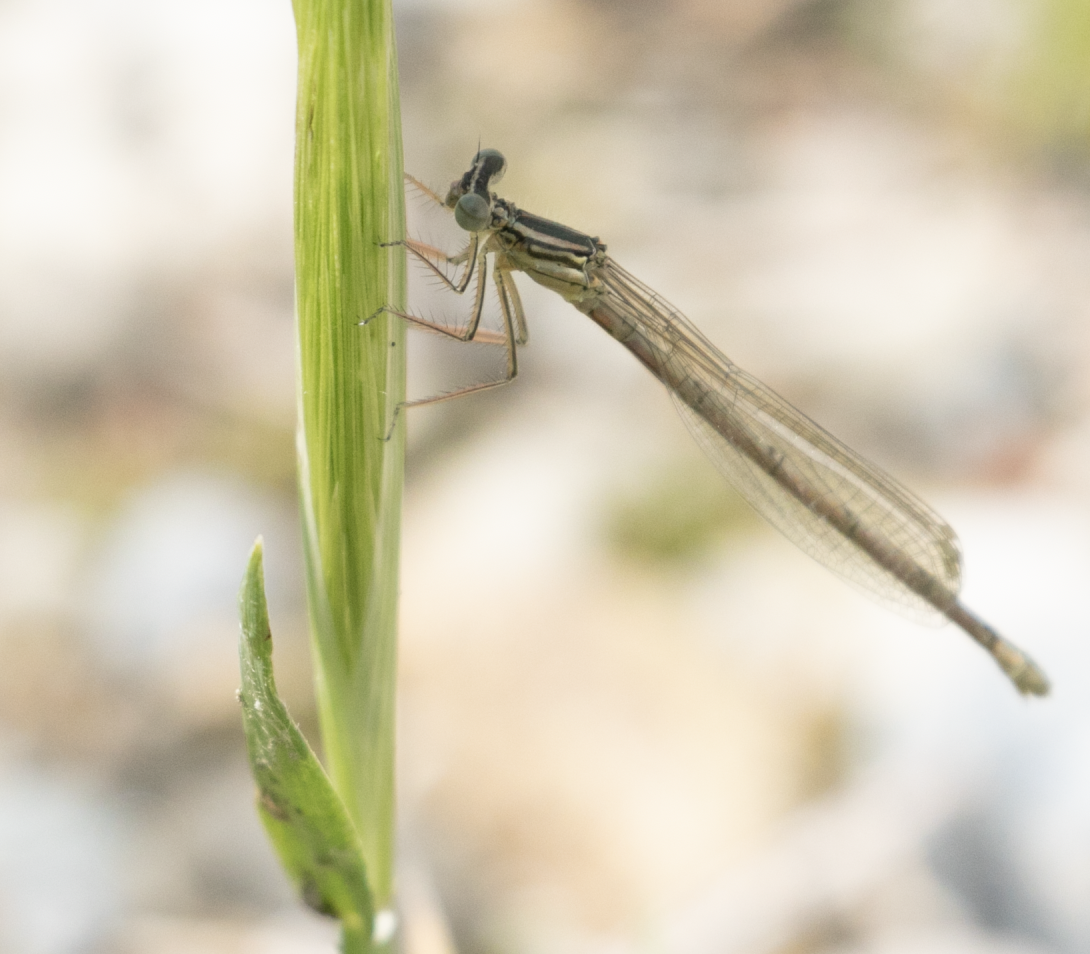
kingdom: Animalia
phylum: Arthropoda
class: Insecta
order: Odonata
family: Platycnemididae
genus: Platycnemis
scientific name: Platycnemis pennipes
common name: White-legged damselfly
